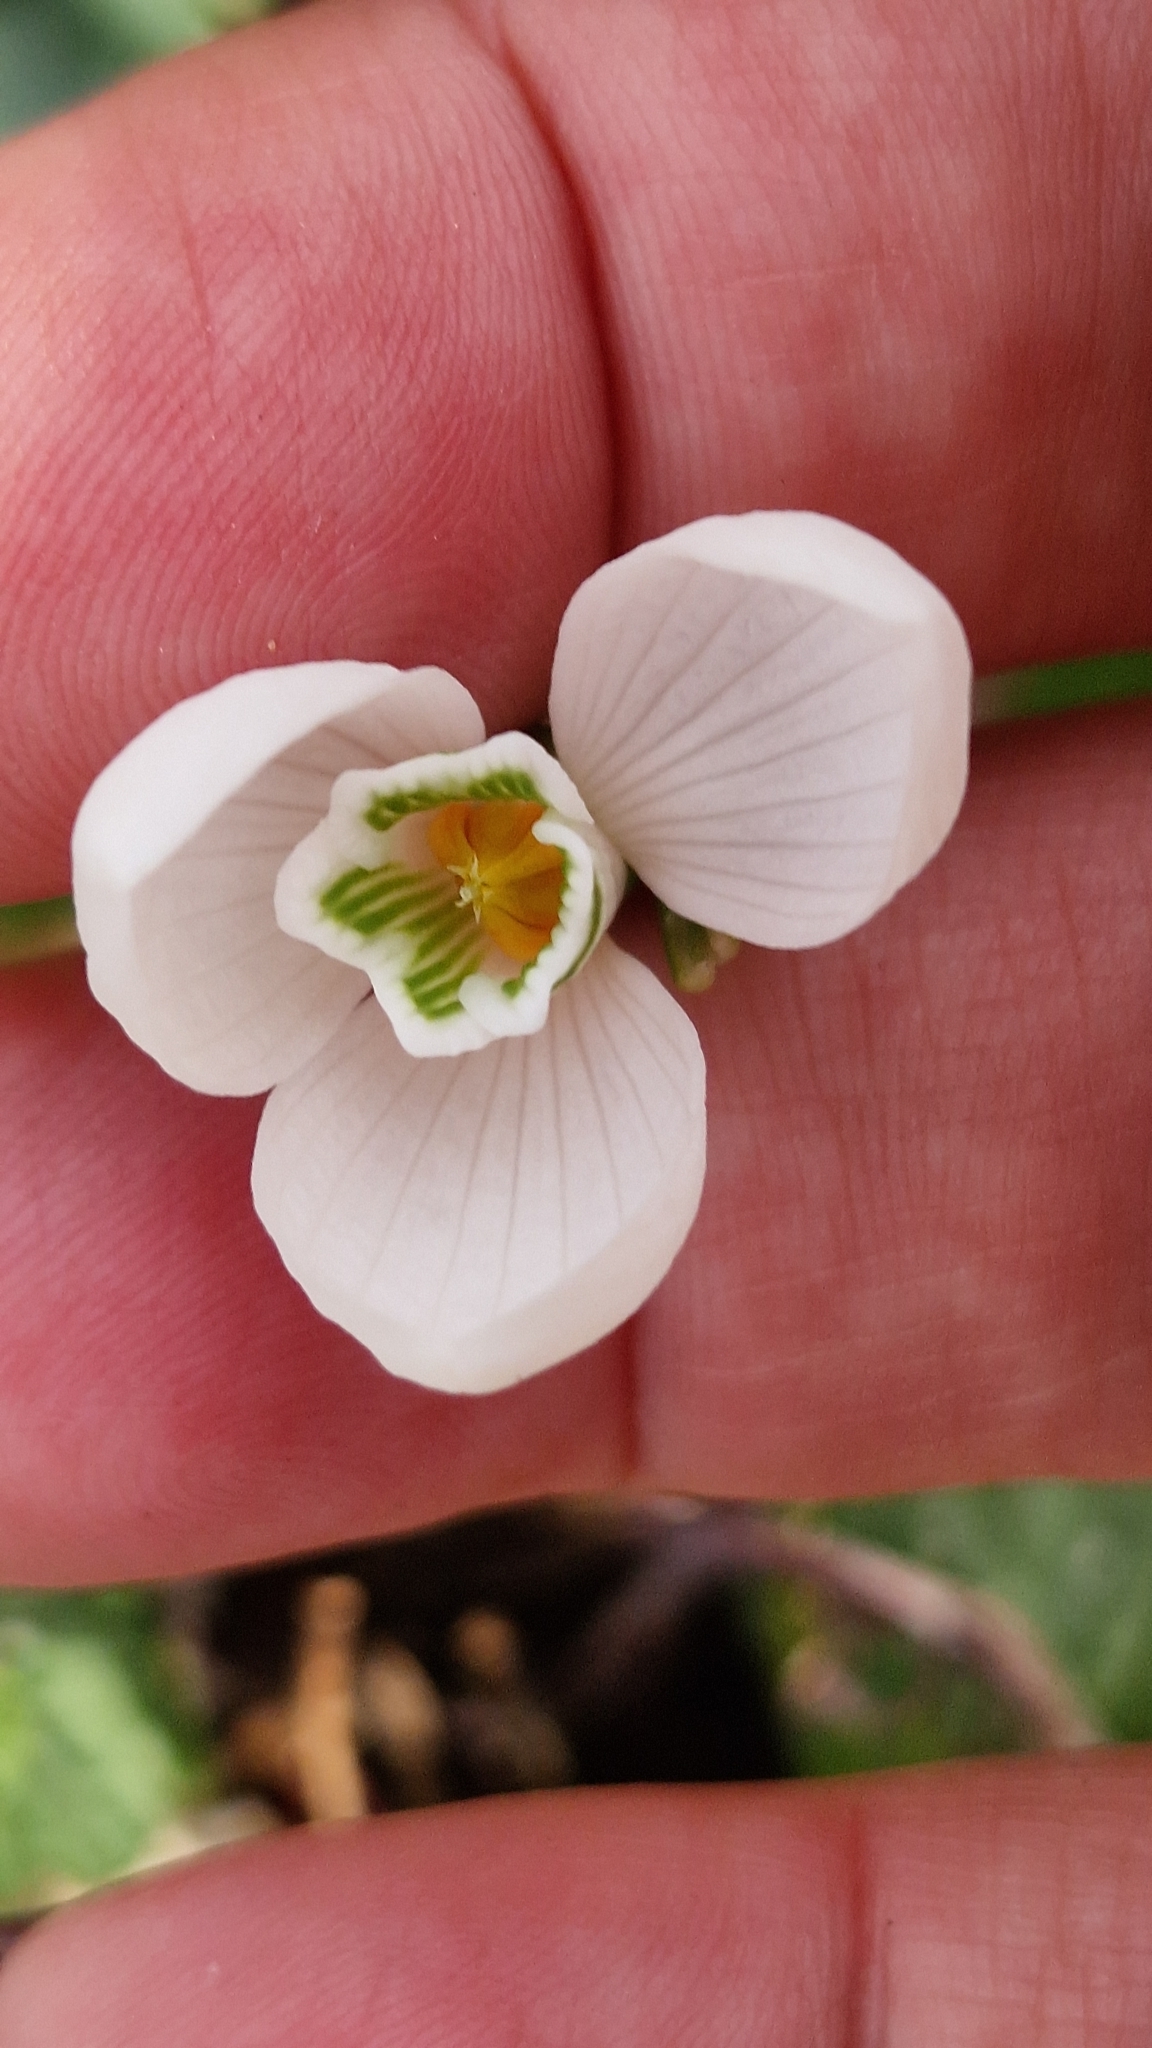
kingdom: Plantae
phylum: Tracheophyta
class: Liliopsida
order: Asparagales
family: Amaryllidaceae
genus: Galanthus
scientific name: Galanthus alpinus
